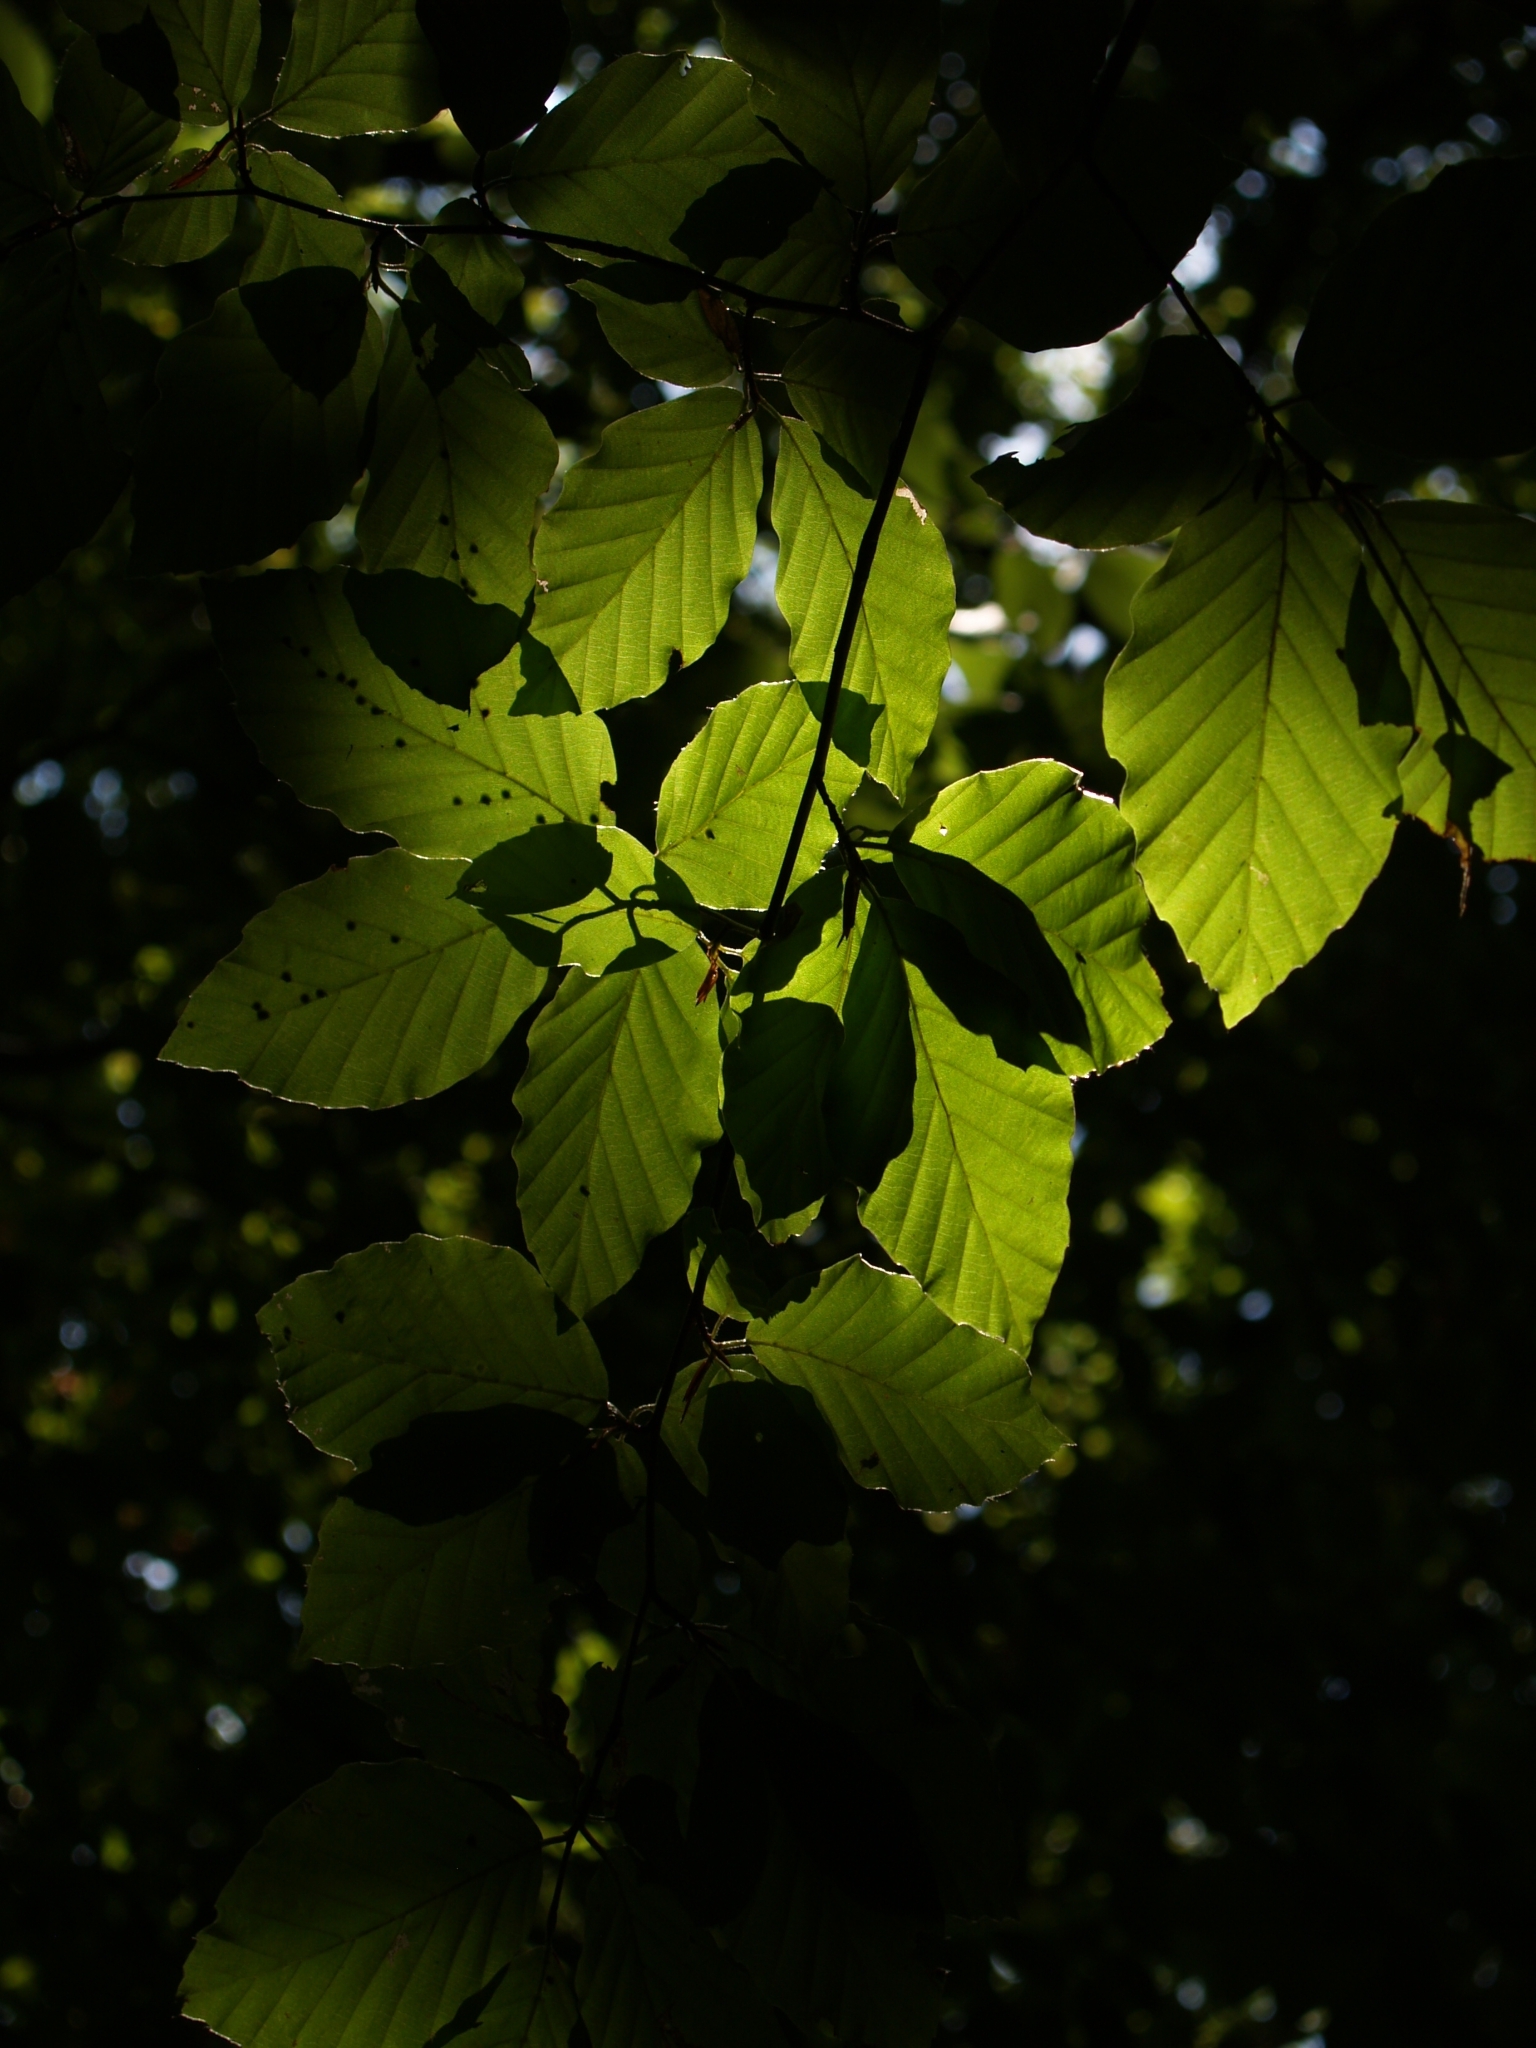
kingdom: Plantae
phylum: Tracheophyta
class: Magnoliopsida
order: Fagales
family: Fagaceae
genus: Fagus
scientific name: Fagus sylvatica
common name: Beech
